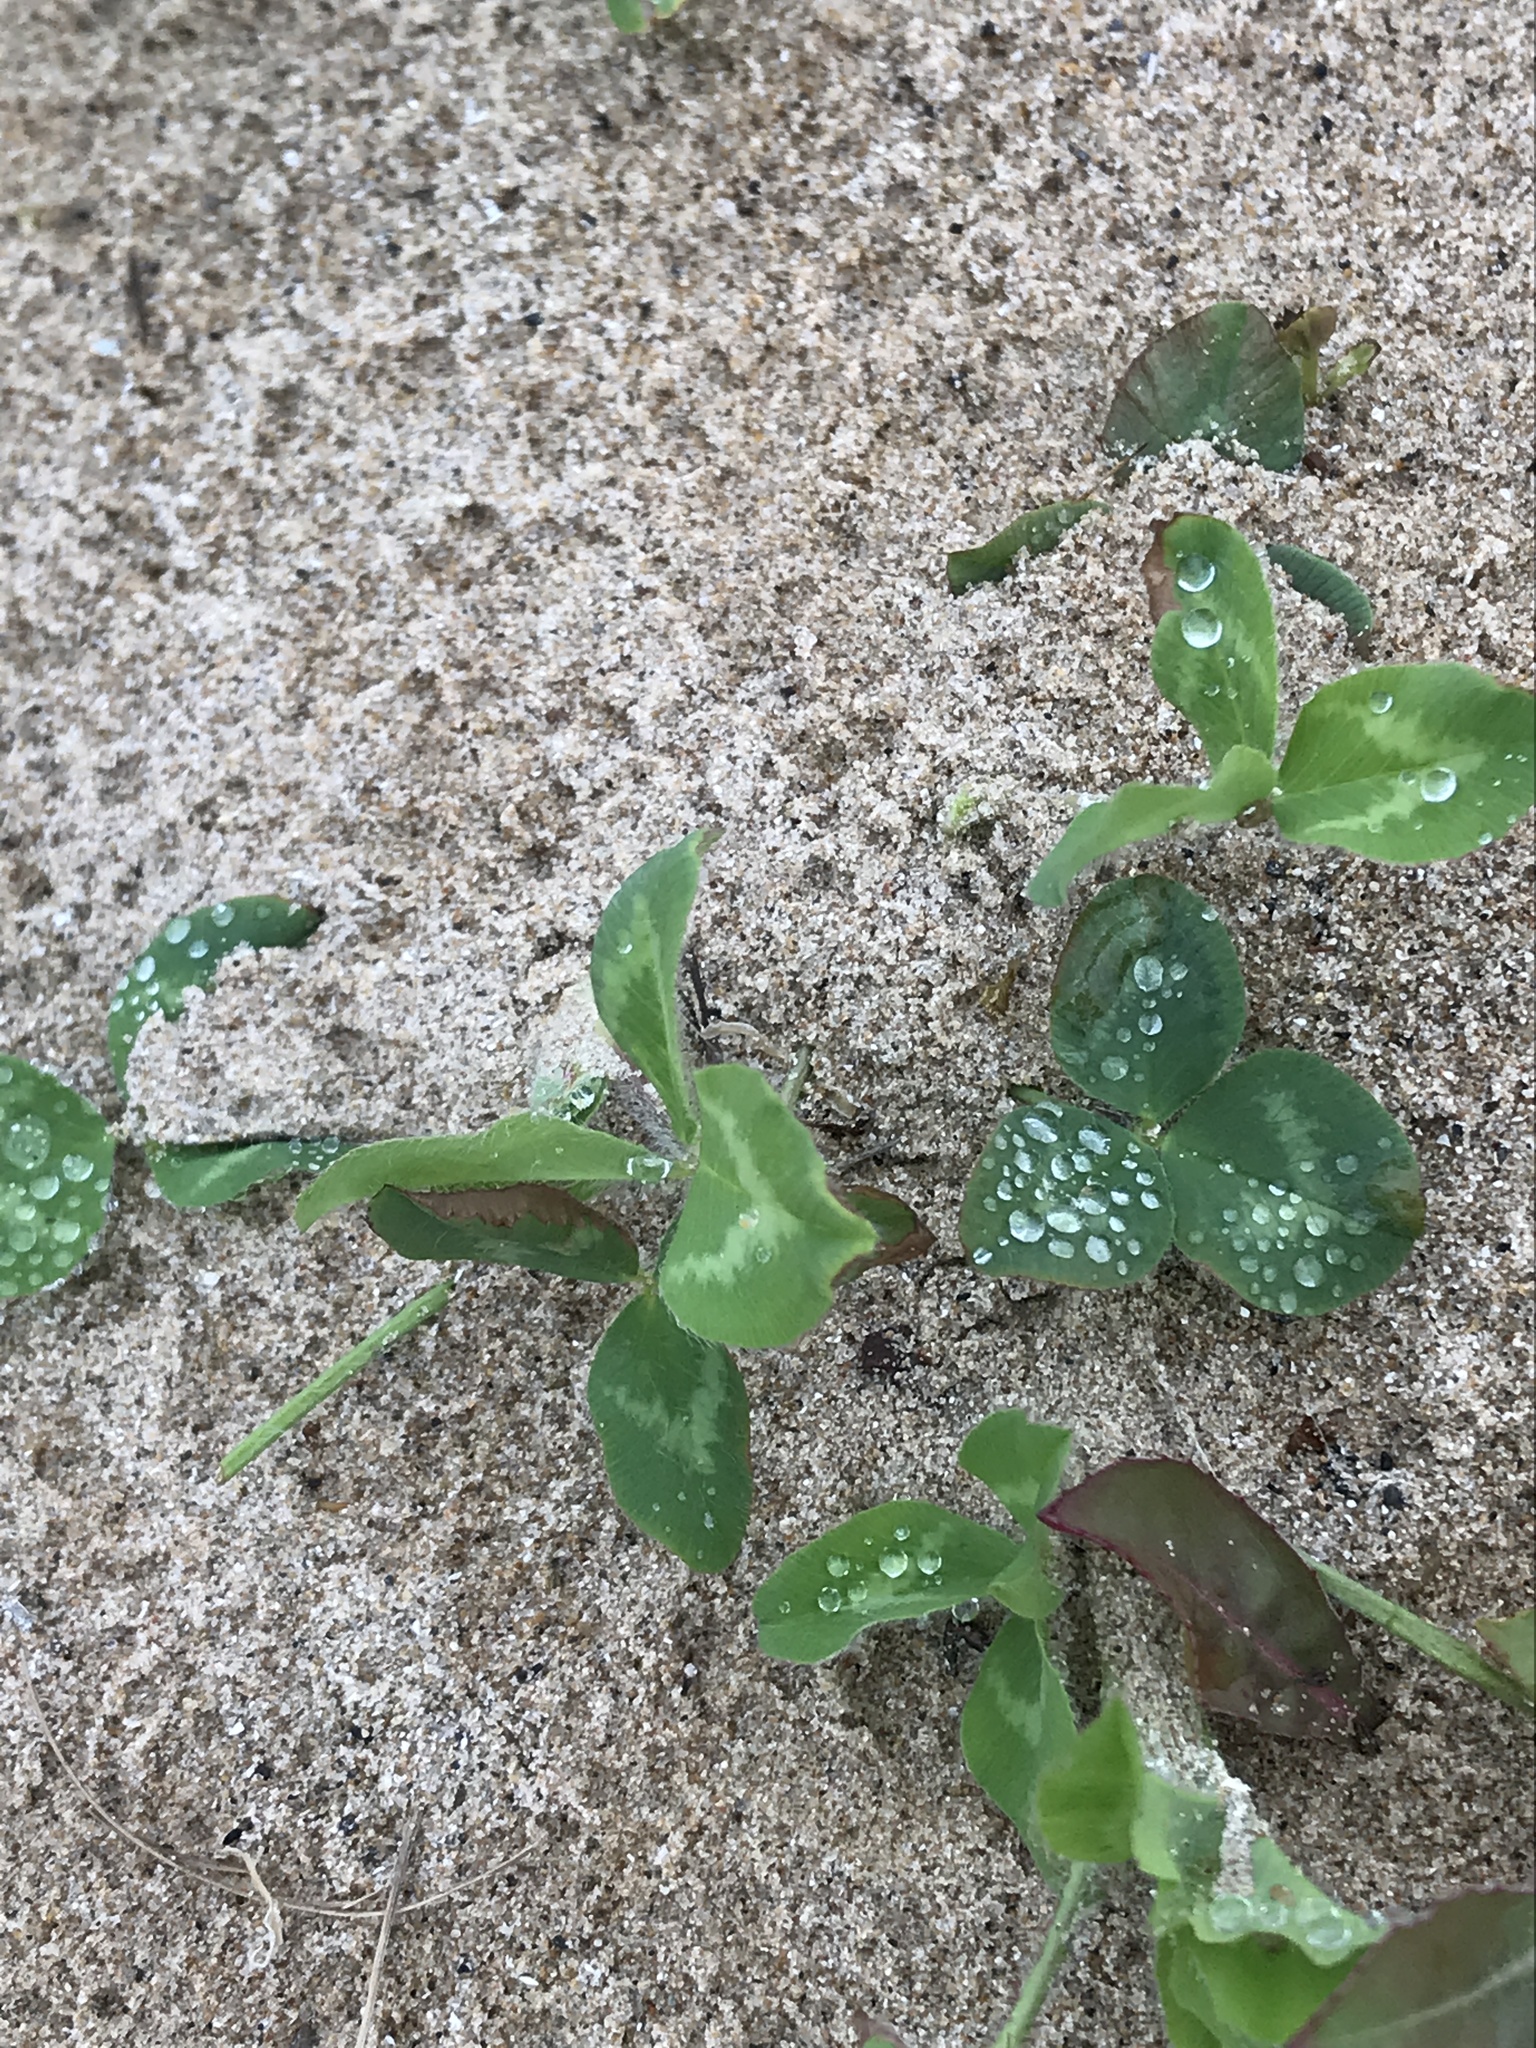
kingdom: Plantae
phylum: Tracheophyta
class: Magnoliopsida
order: Fabales
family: Fabaceae
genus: Trifolium
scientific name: Trifolium repens
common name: White clover
